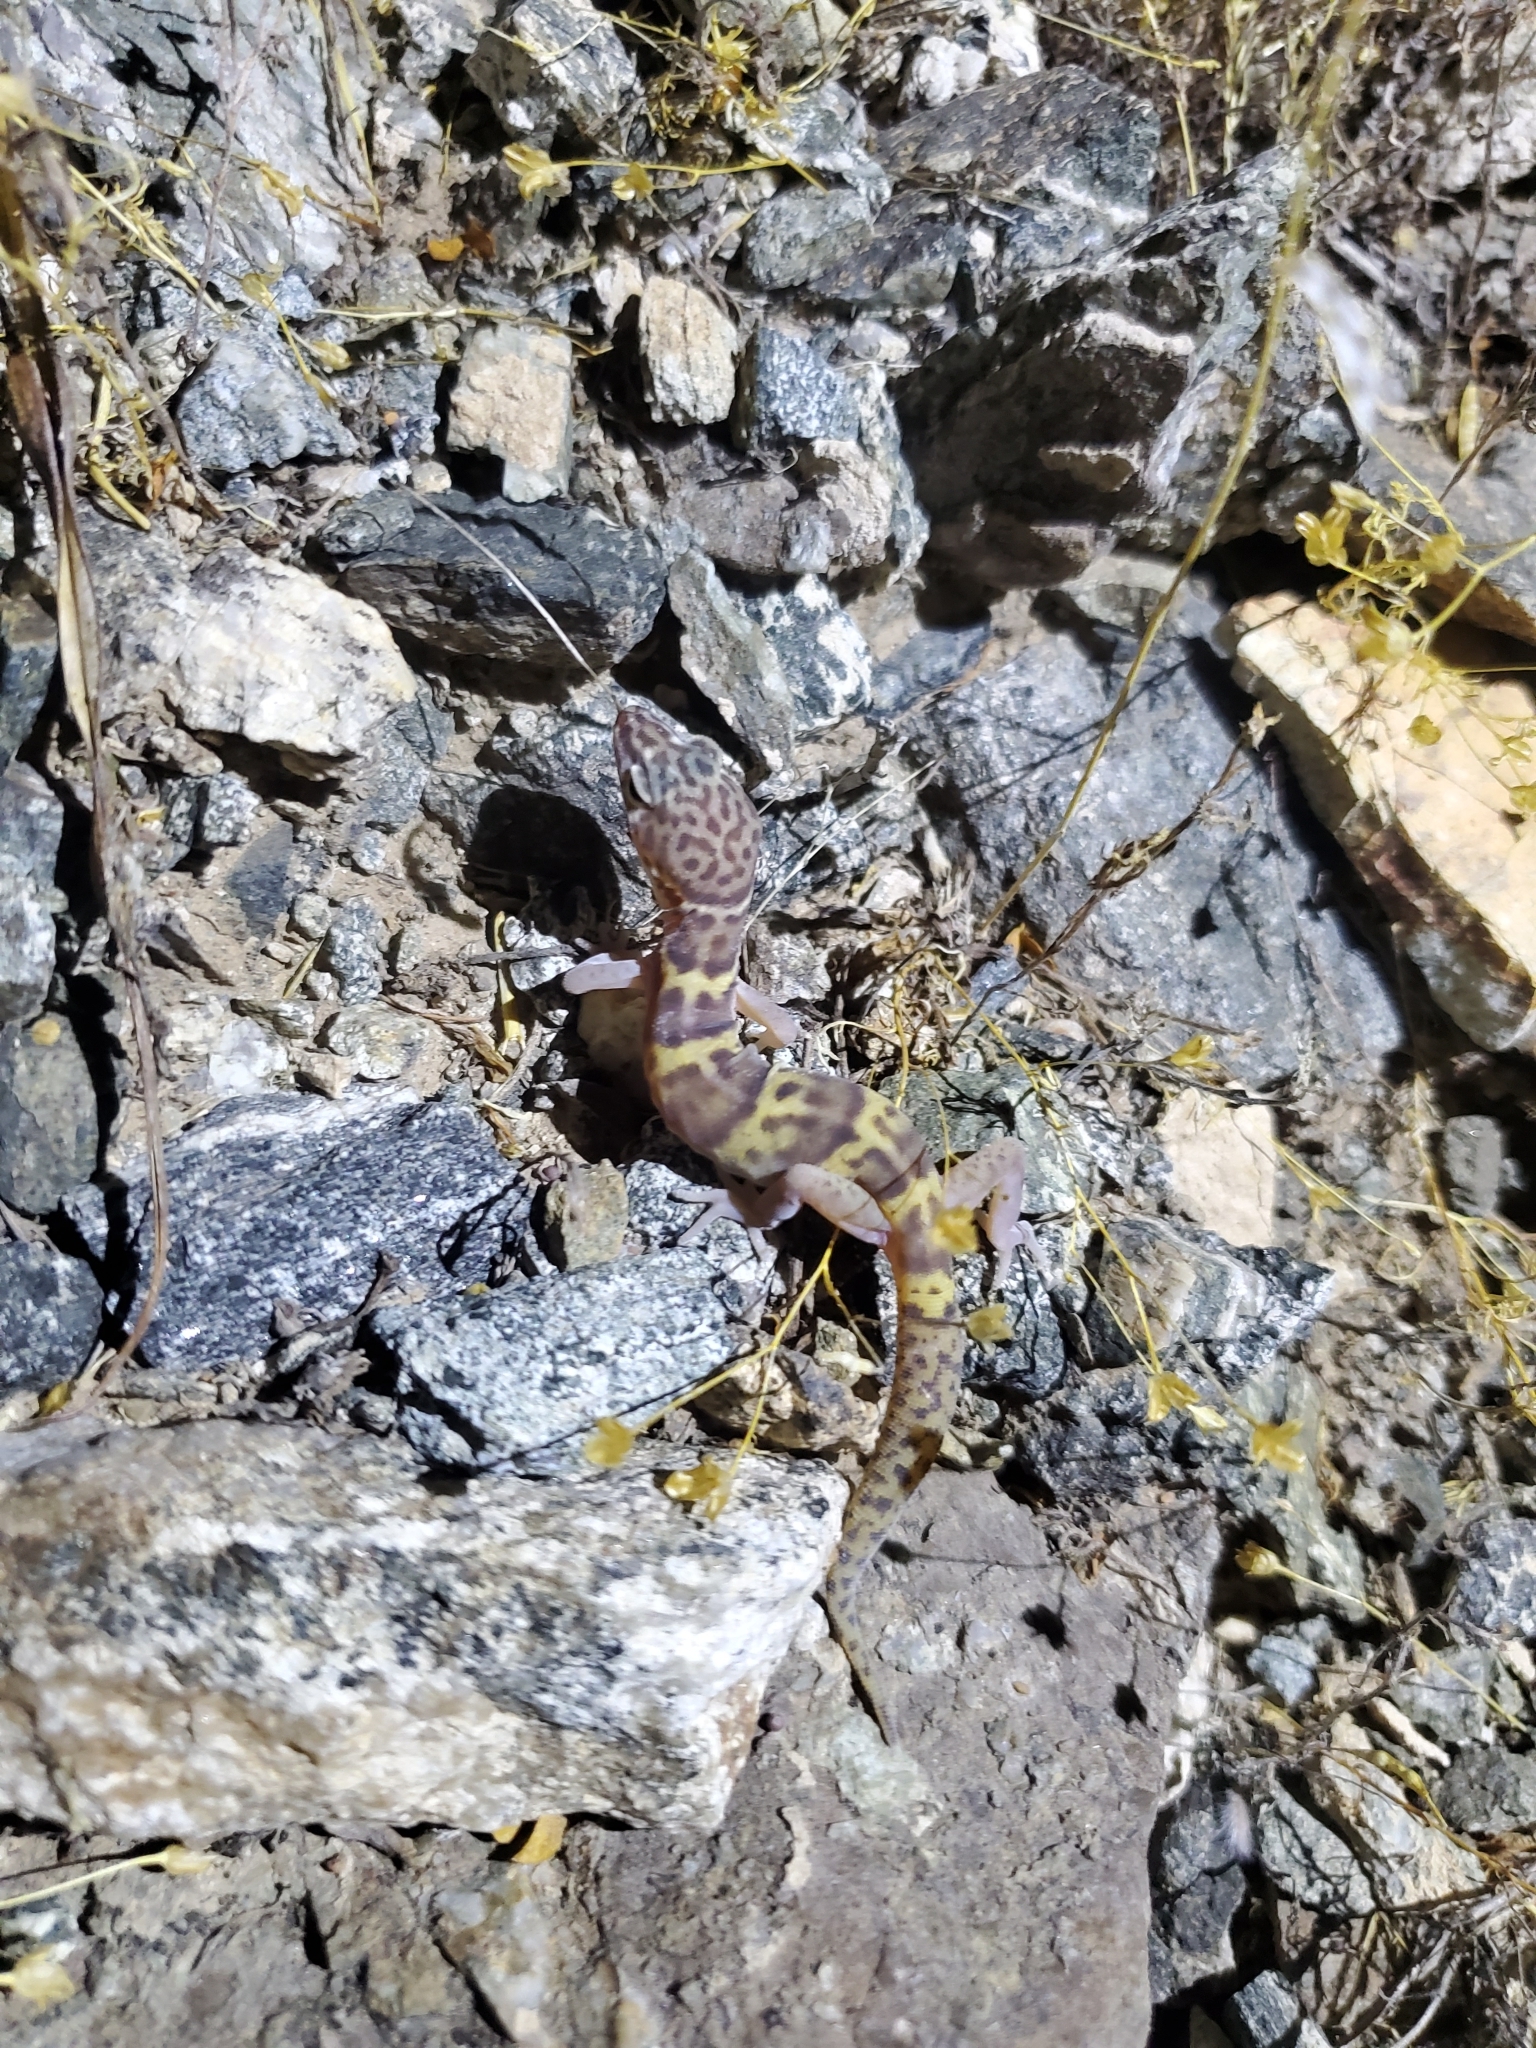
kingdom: Animalia
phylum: Chordata
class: Squamata
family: Eublepharidae
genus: Coleonyx
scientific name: Coleonyx variegatus
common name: Western banded gecko
